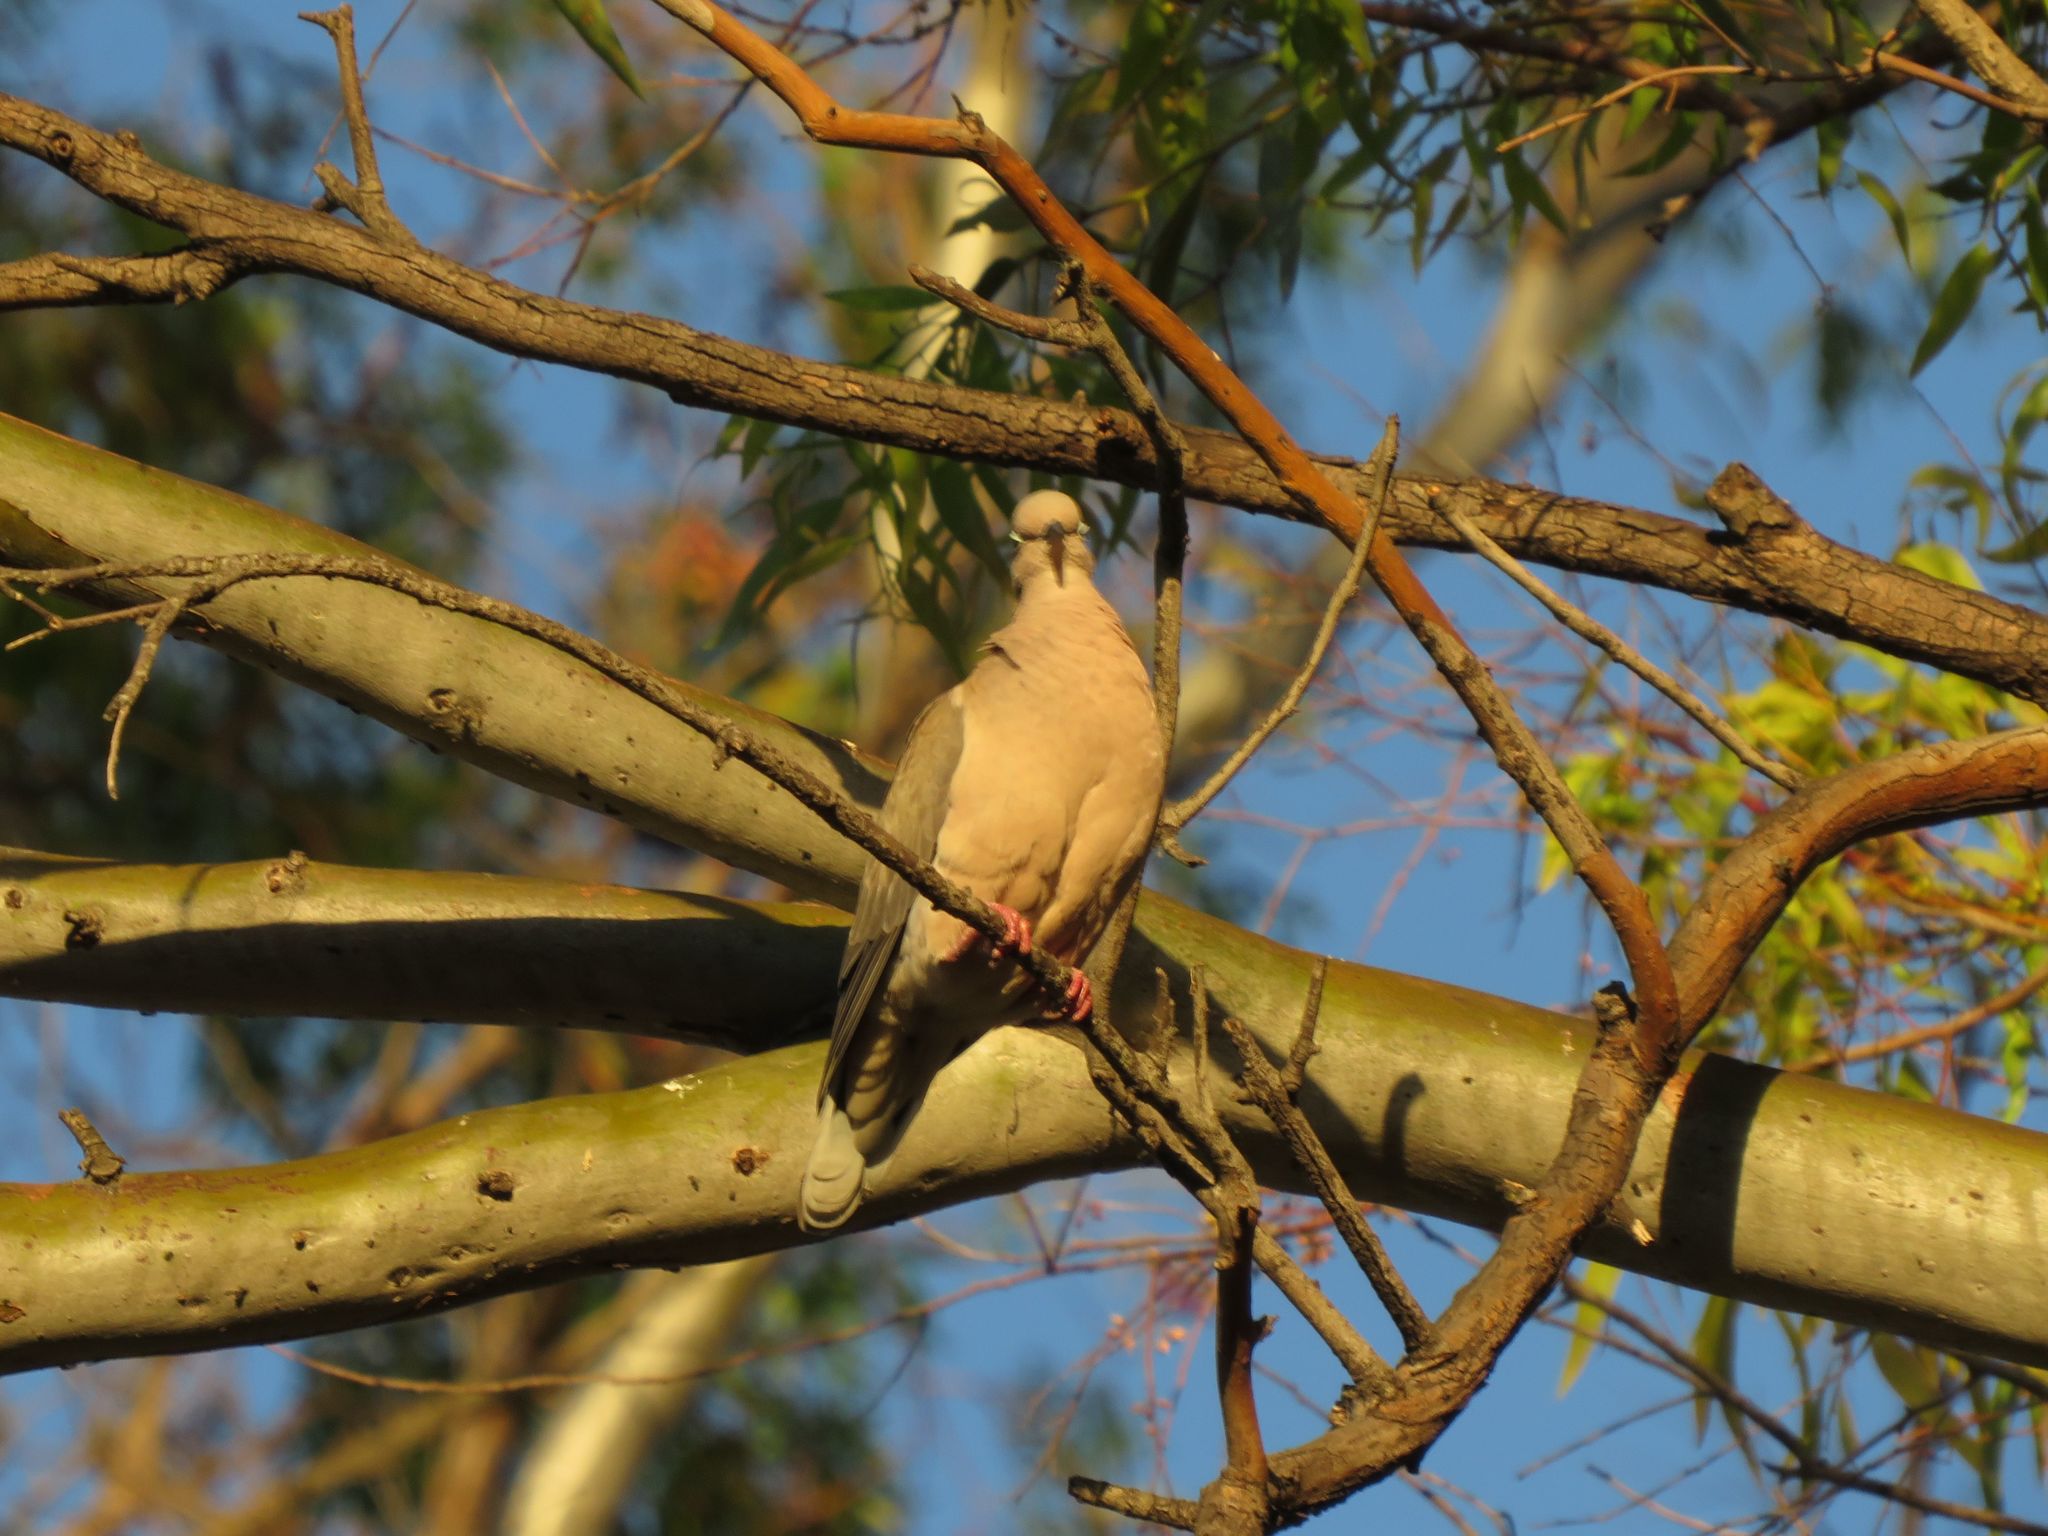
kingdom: Animalia
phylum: Chordata
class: Aves
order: Columbiformes
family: Columbidae
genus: Zenaida
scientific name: Zenaida auriculata
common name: Eared dove
